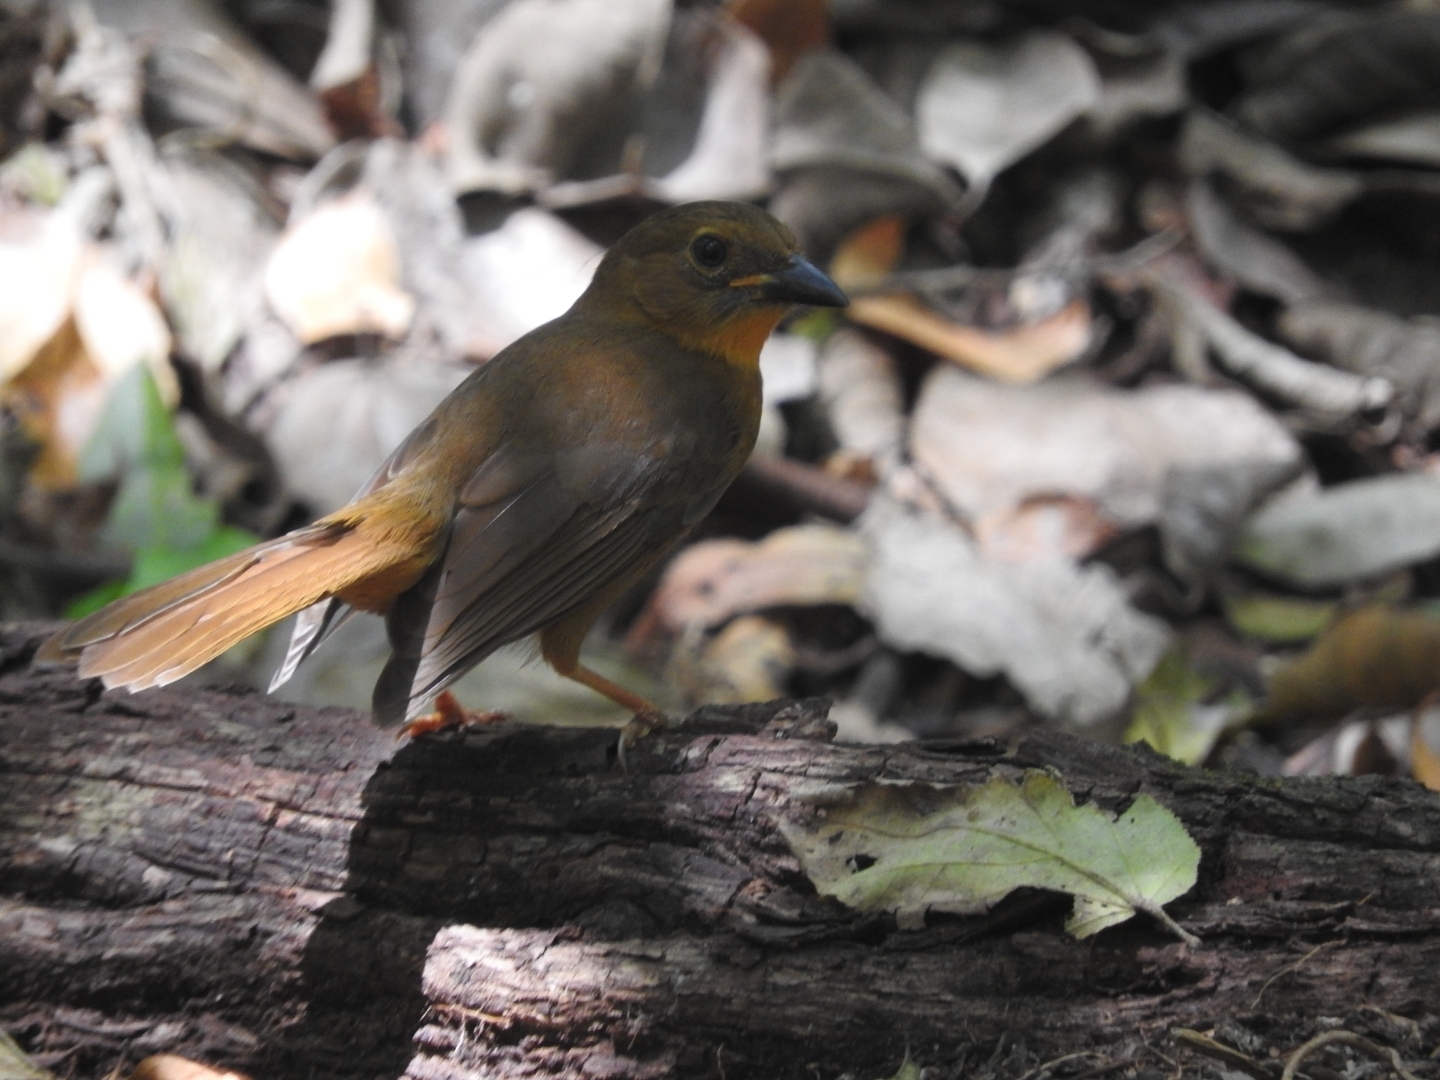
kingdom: Animalia
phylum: Chordata
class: Aves
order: Passeriformes
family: Cardinalidae
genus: Habia
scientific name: Habia fuscicauda
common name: Red-throated ant-tanager
